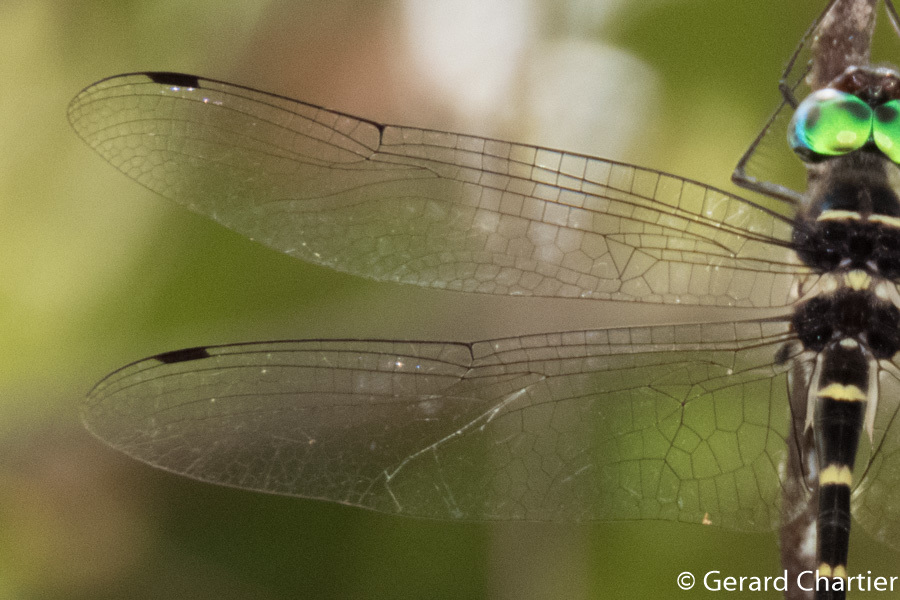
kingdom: Animalia
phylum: Arthropoda
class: Insecta
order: Odonata
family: Macromiidae
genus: Macromia
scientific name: Macromia cincta
